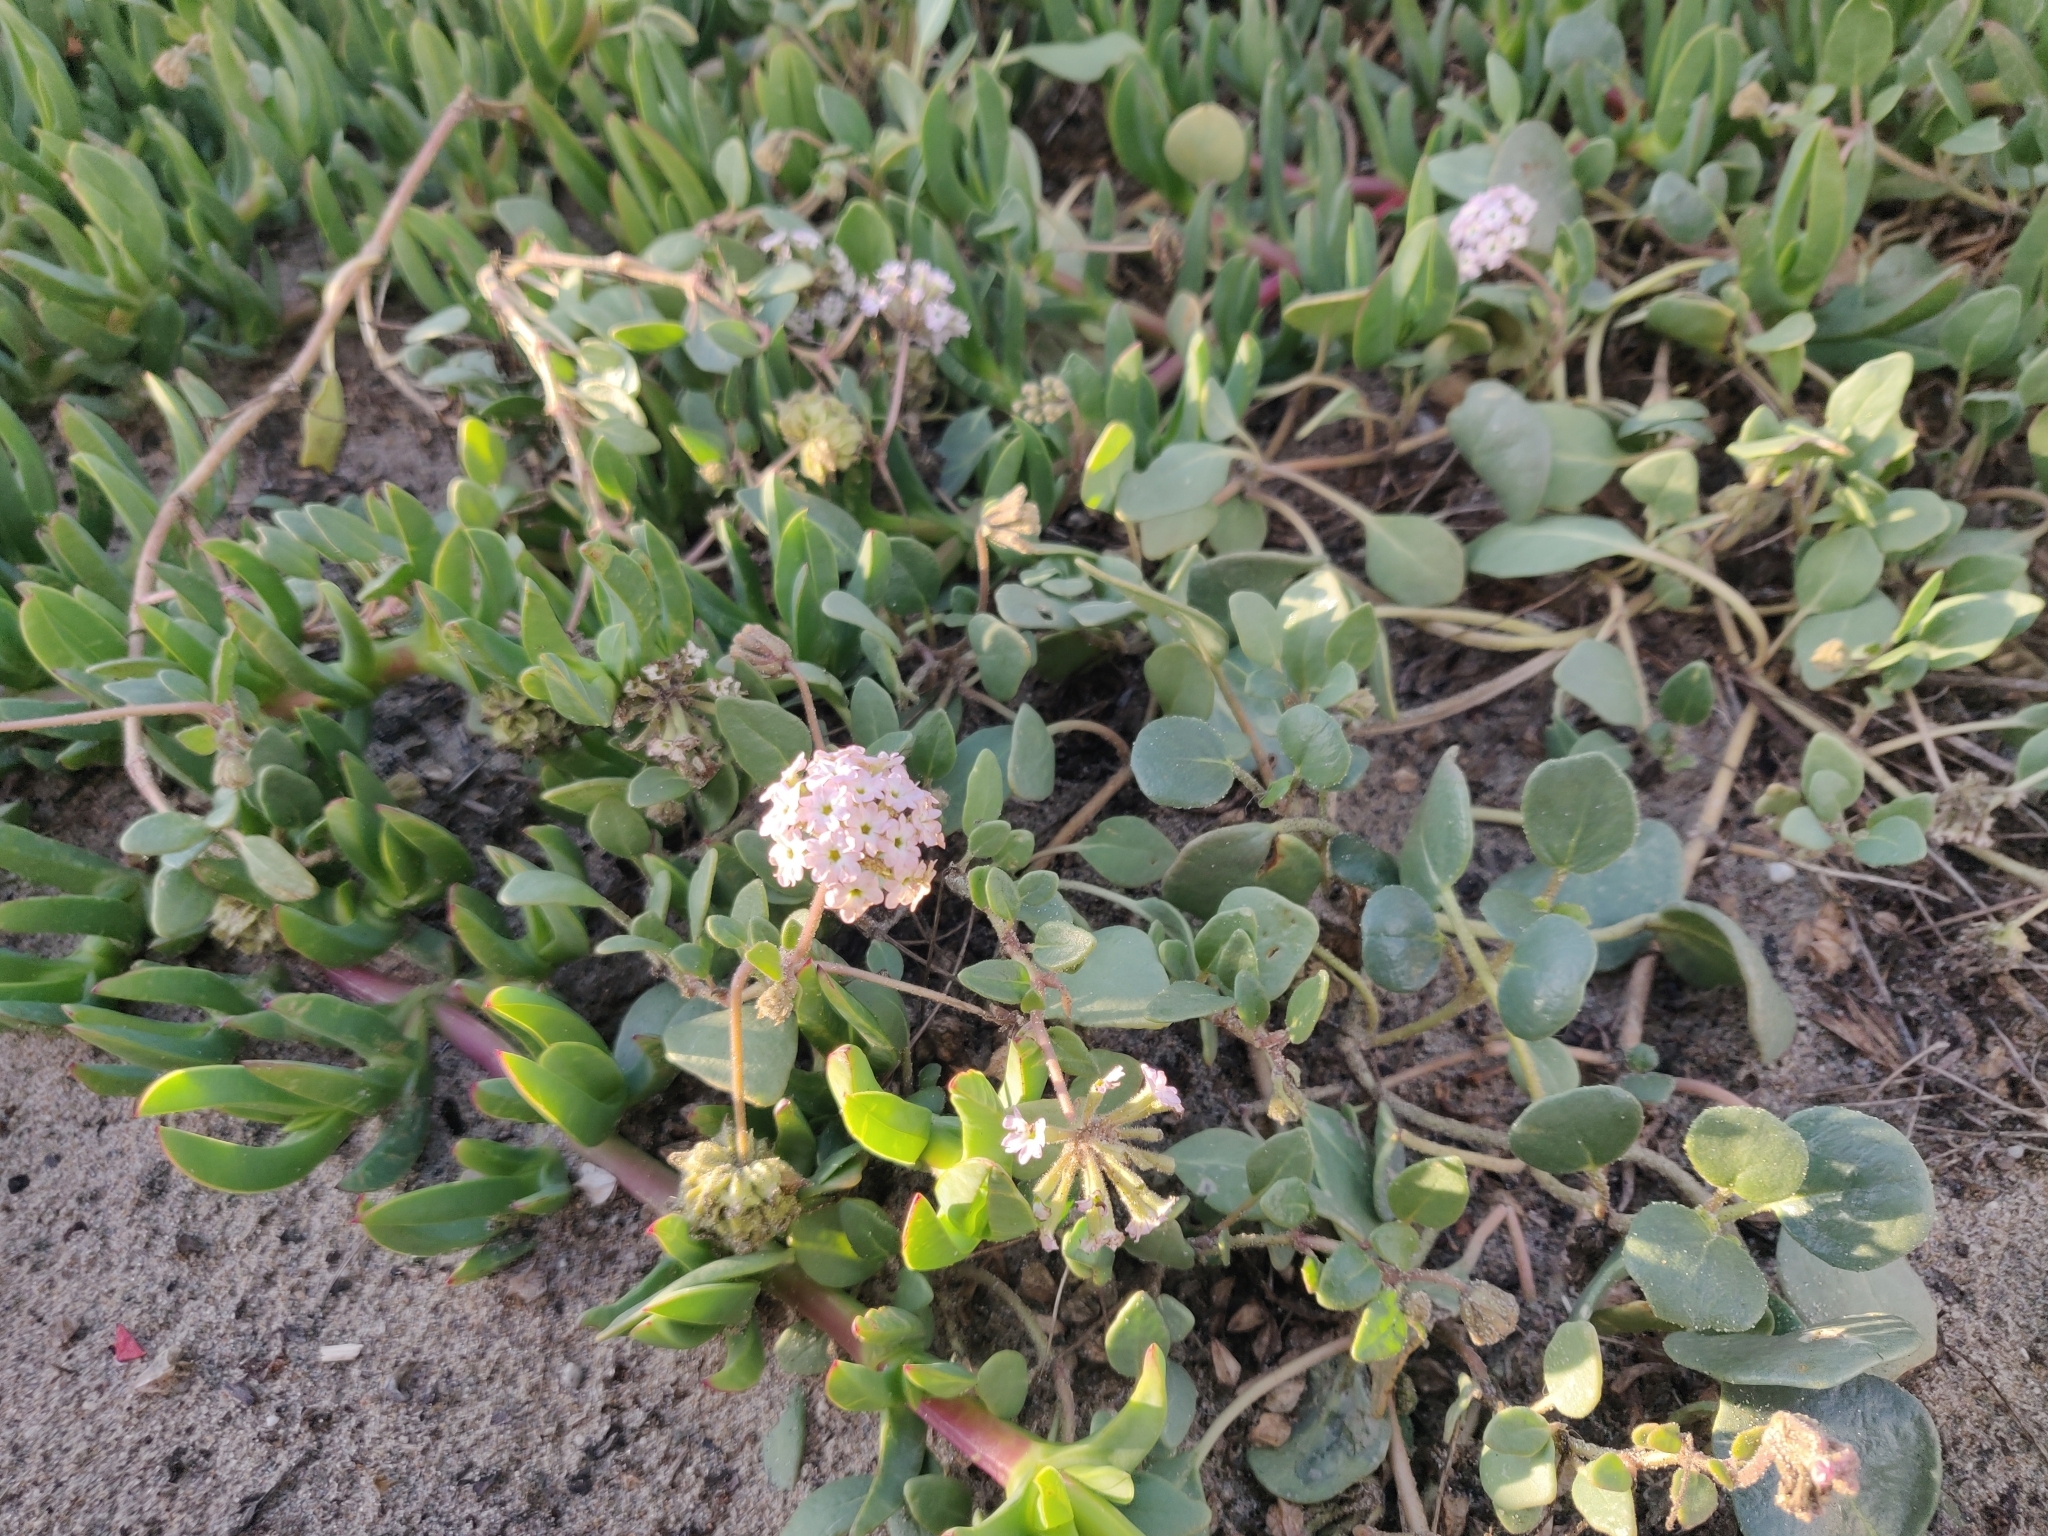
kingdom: Plantae
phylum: Tracheophyta
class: Magnoliopsida
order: Caryophyllales
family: Nyctaginaceae
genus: Abronia
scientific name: Abronia
